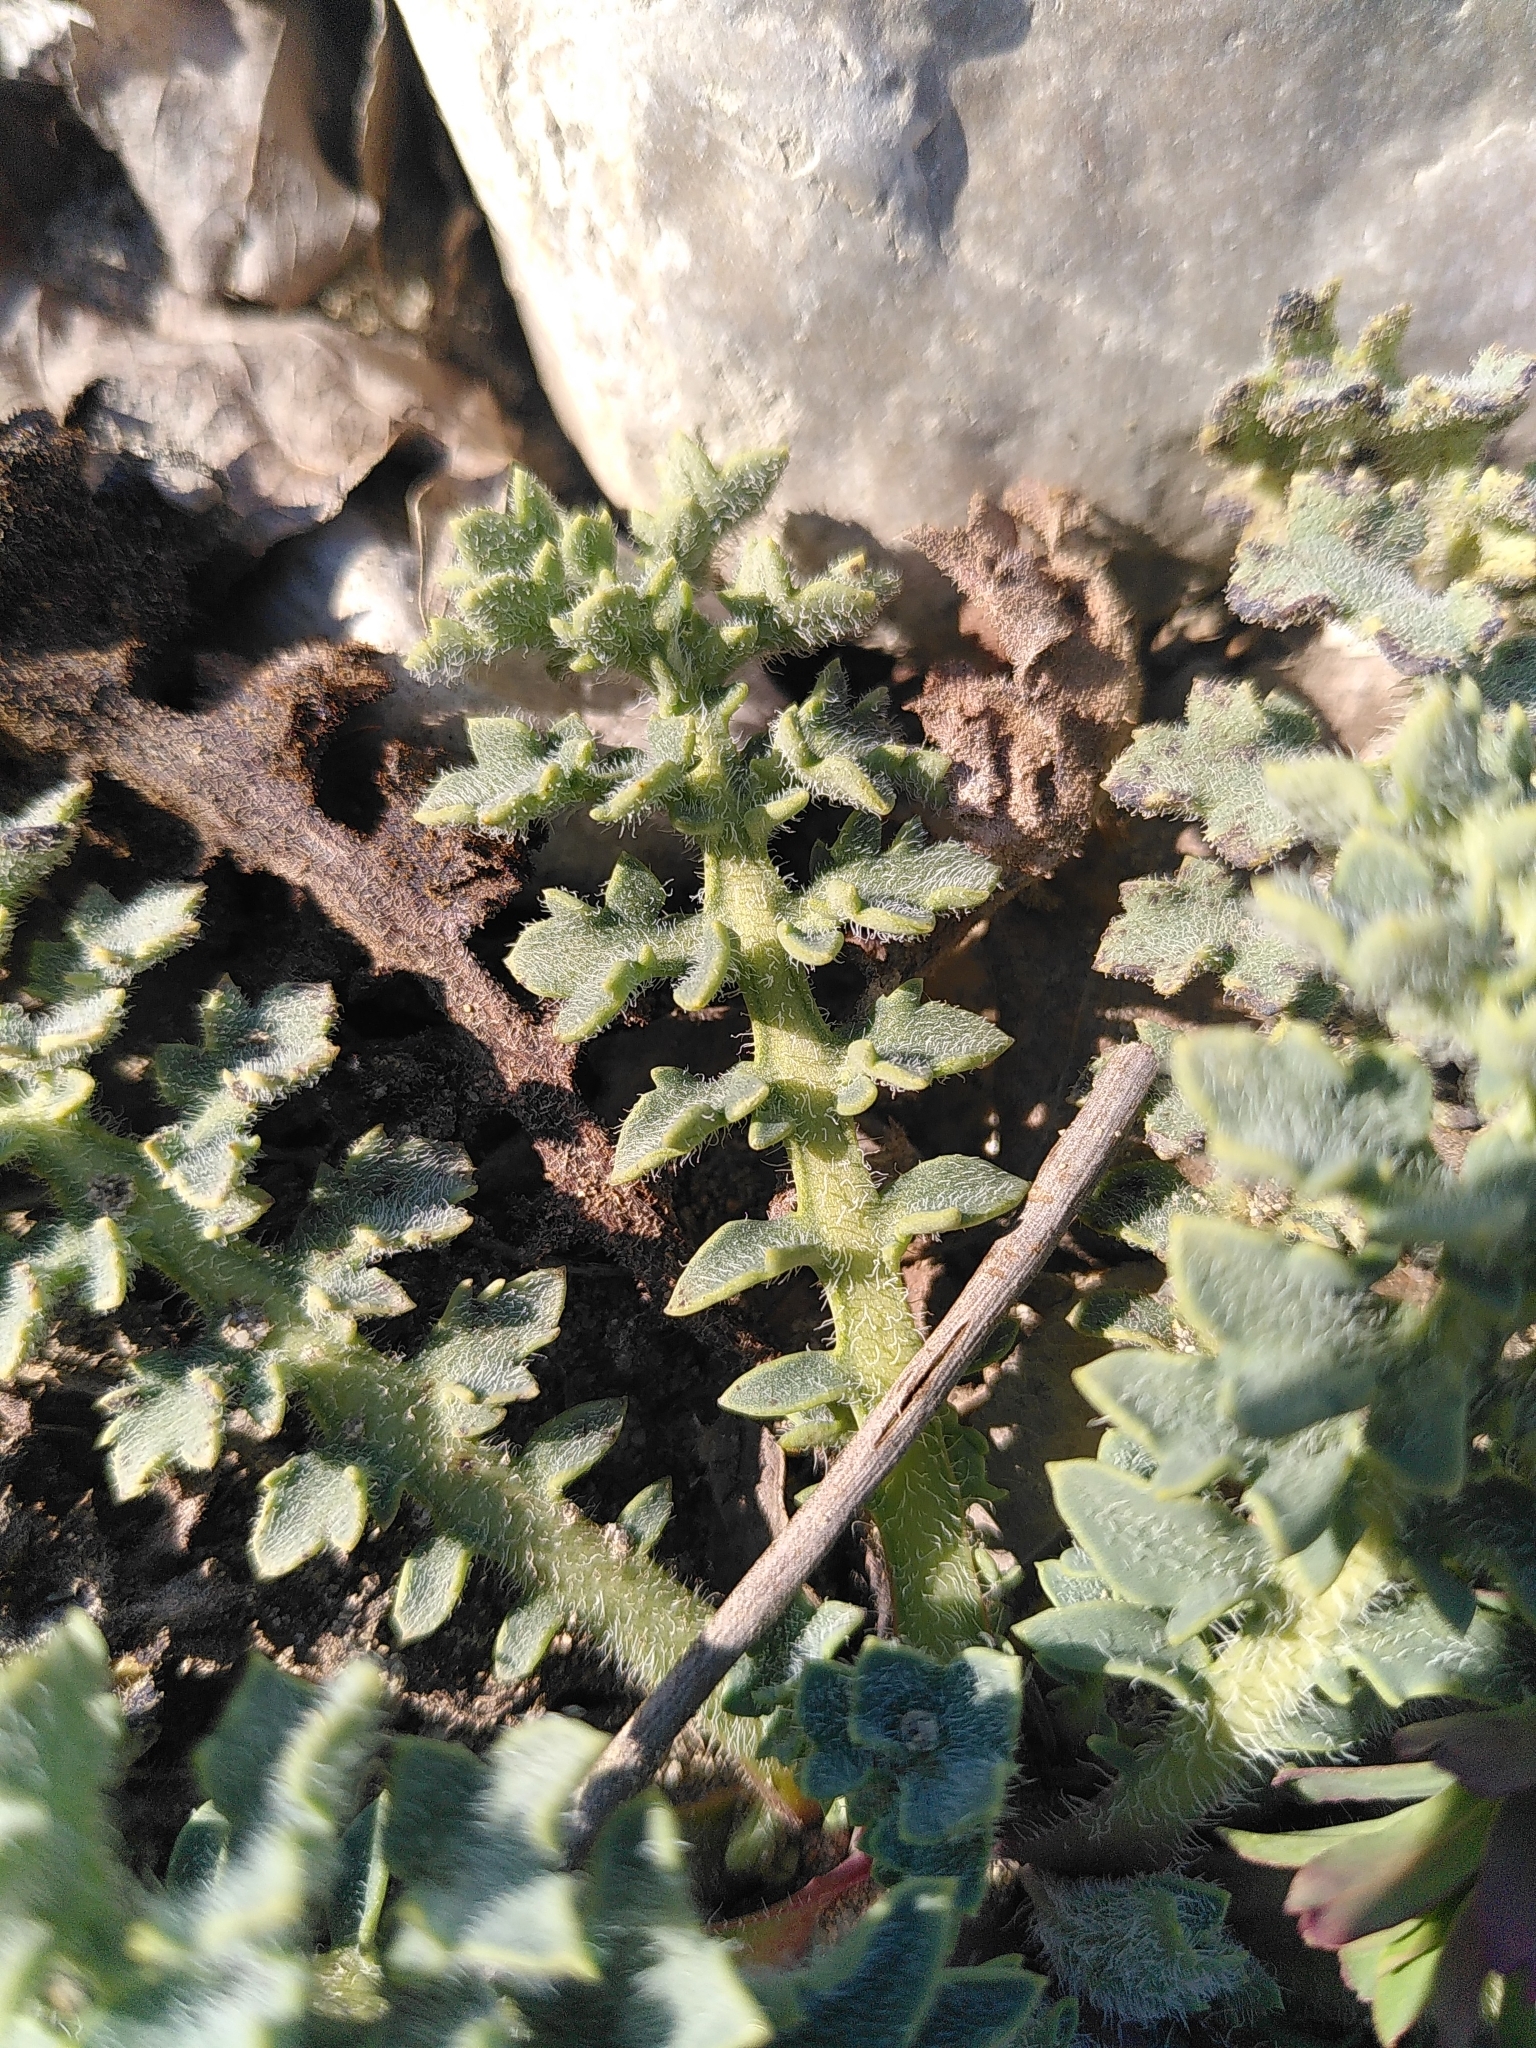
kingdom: Plantae
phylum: Tracheophyta
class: Magnoliopsida
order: Ranunculales
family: Papaveraceae
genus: Glaucium
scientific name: Glaucium flavum
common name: Yellow horned-poppy
